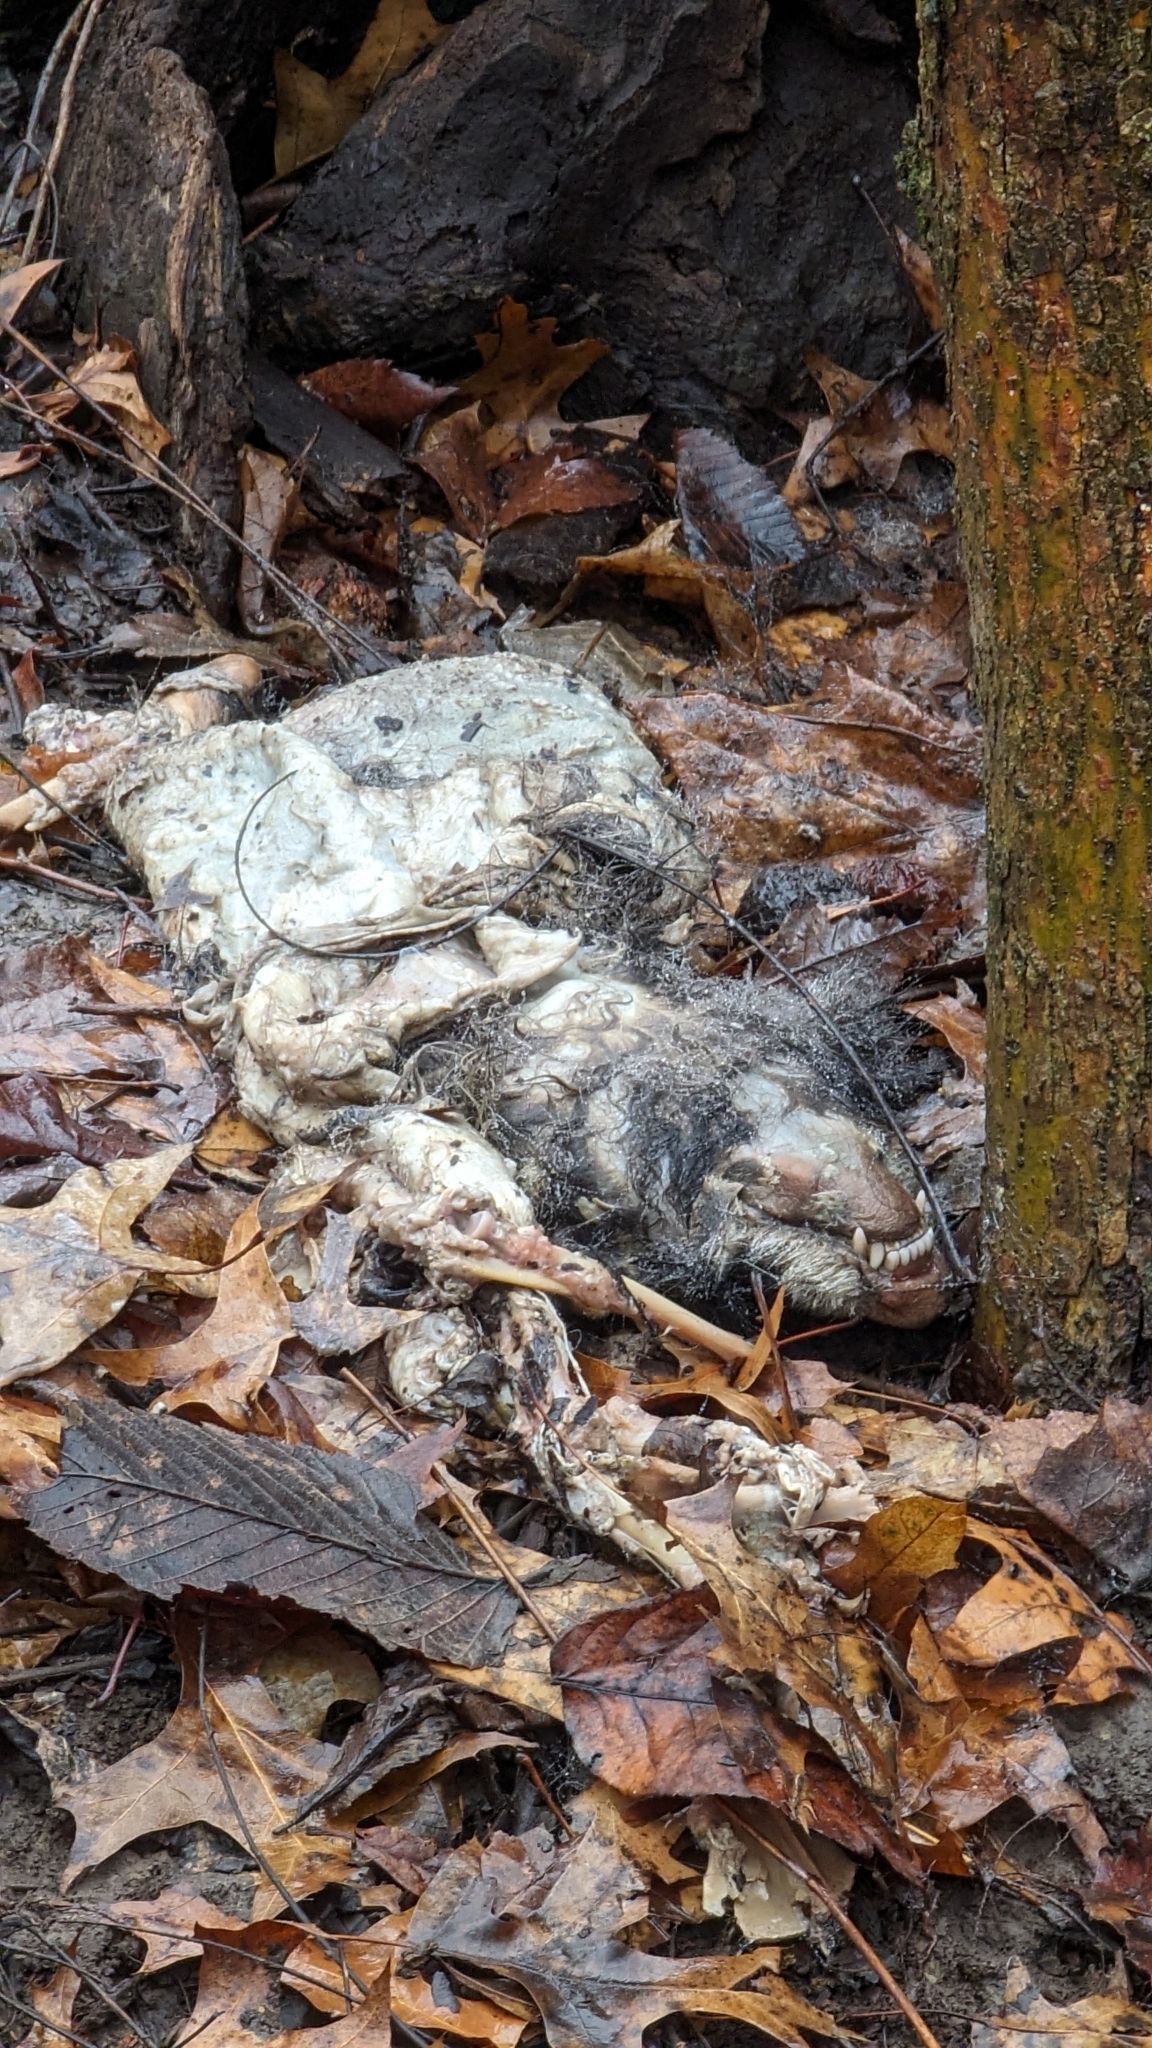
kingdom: Animalia
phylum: Chordata
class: Mammalia
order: Didelphimorphia
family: Didelphidae
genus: Didelphis
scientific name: Didelphis virginiana
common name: Virginia opossum
